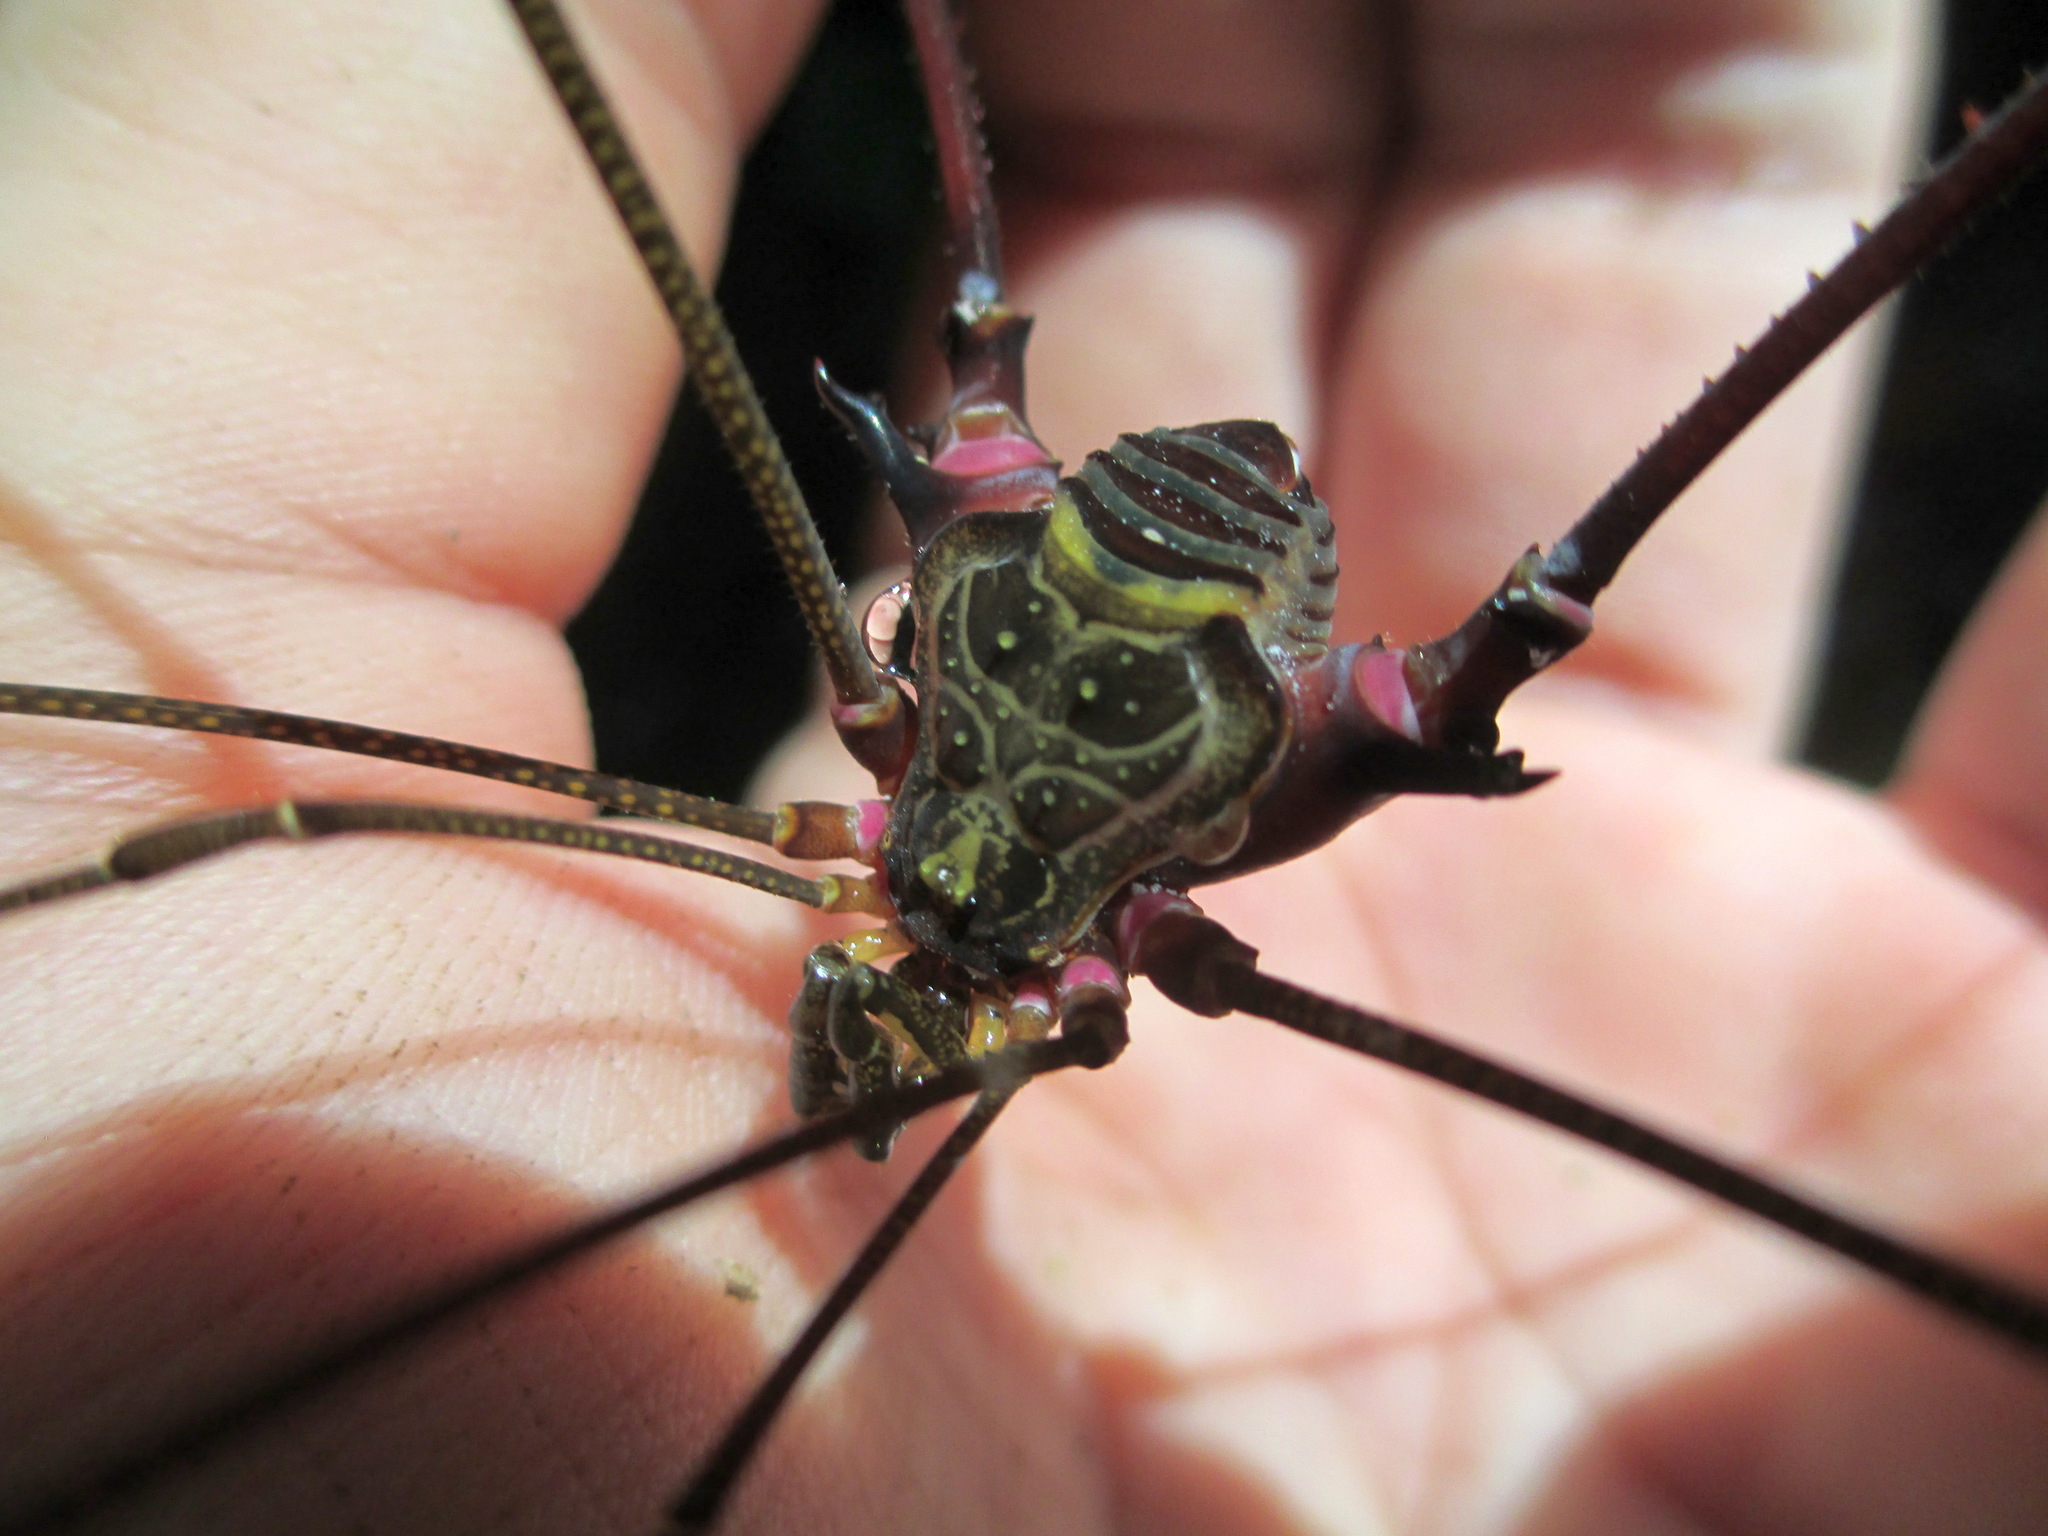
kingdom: Animalia
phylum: Arthropoda
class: Arachnida
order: Opiliones
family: Gonyleptidae
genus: Serracutisoma
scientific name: Serracutisoma inerme
